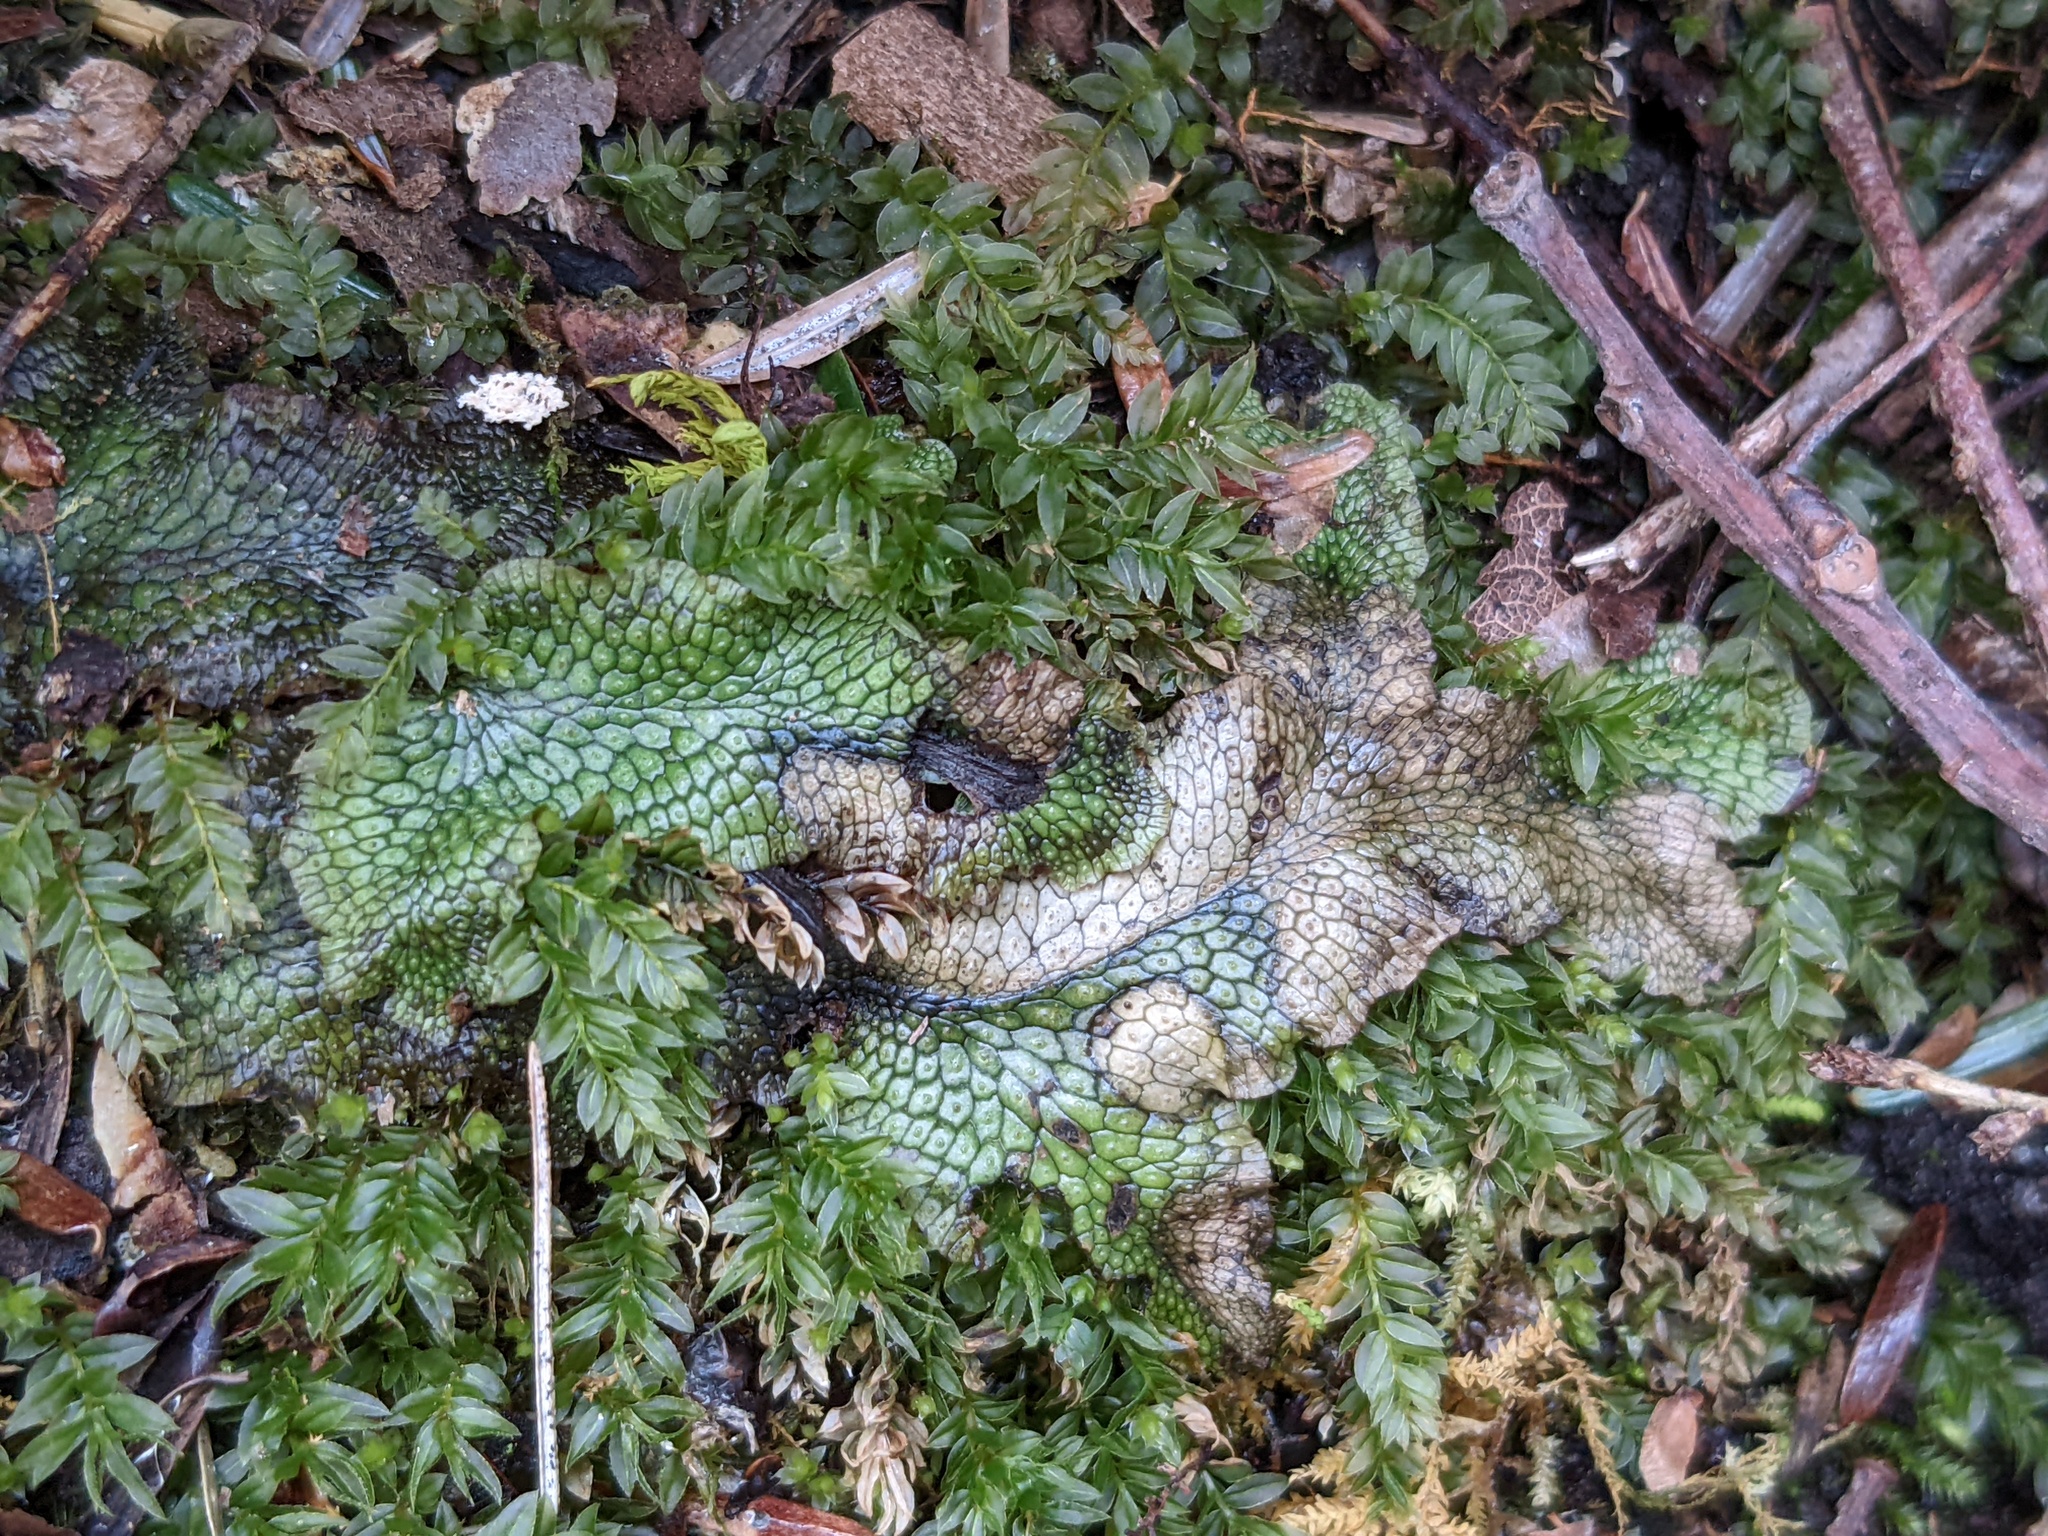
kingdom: Plantae
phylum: Marchantiophyta
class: Marchantiopsida
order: Marchantiales
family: Conocephalaceae
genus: Conocephalum
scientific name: Conocephalum salebrosum
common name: Cat-tongue liverwort
